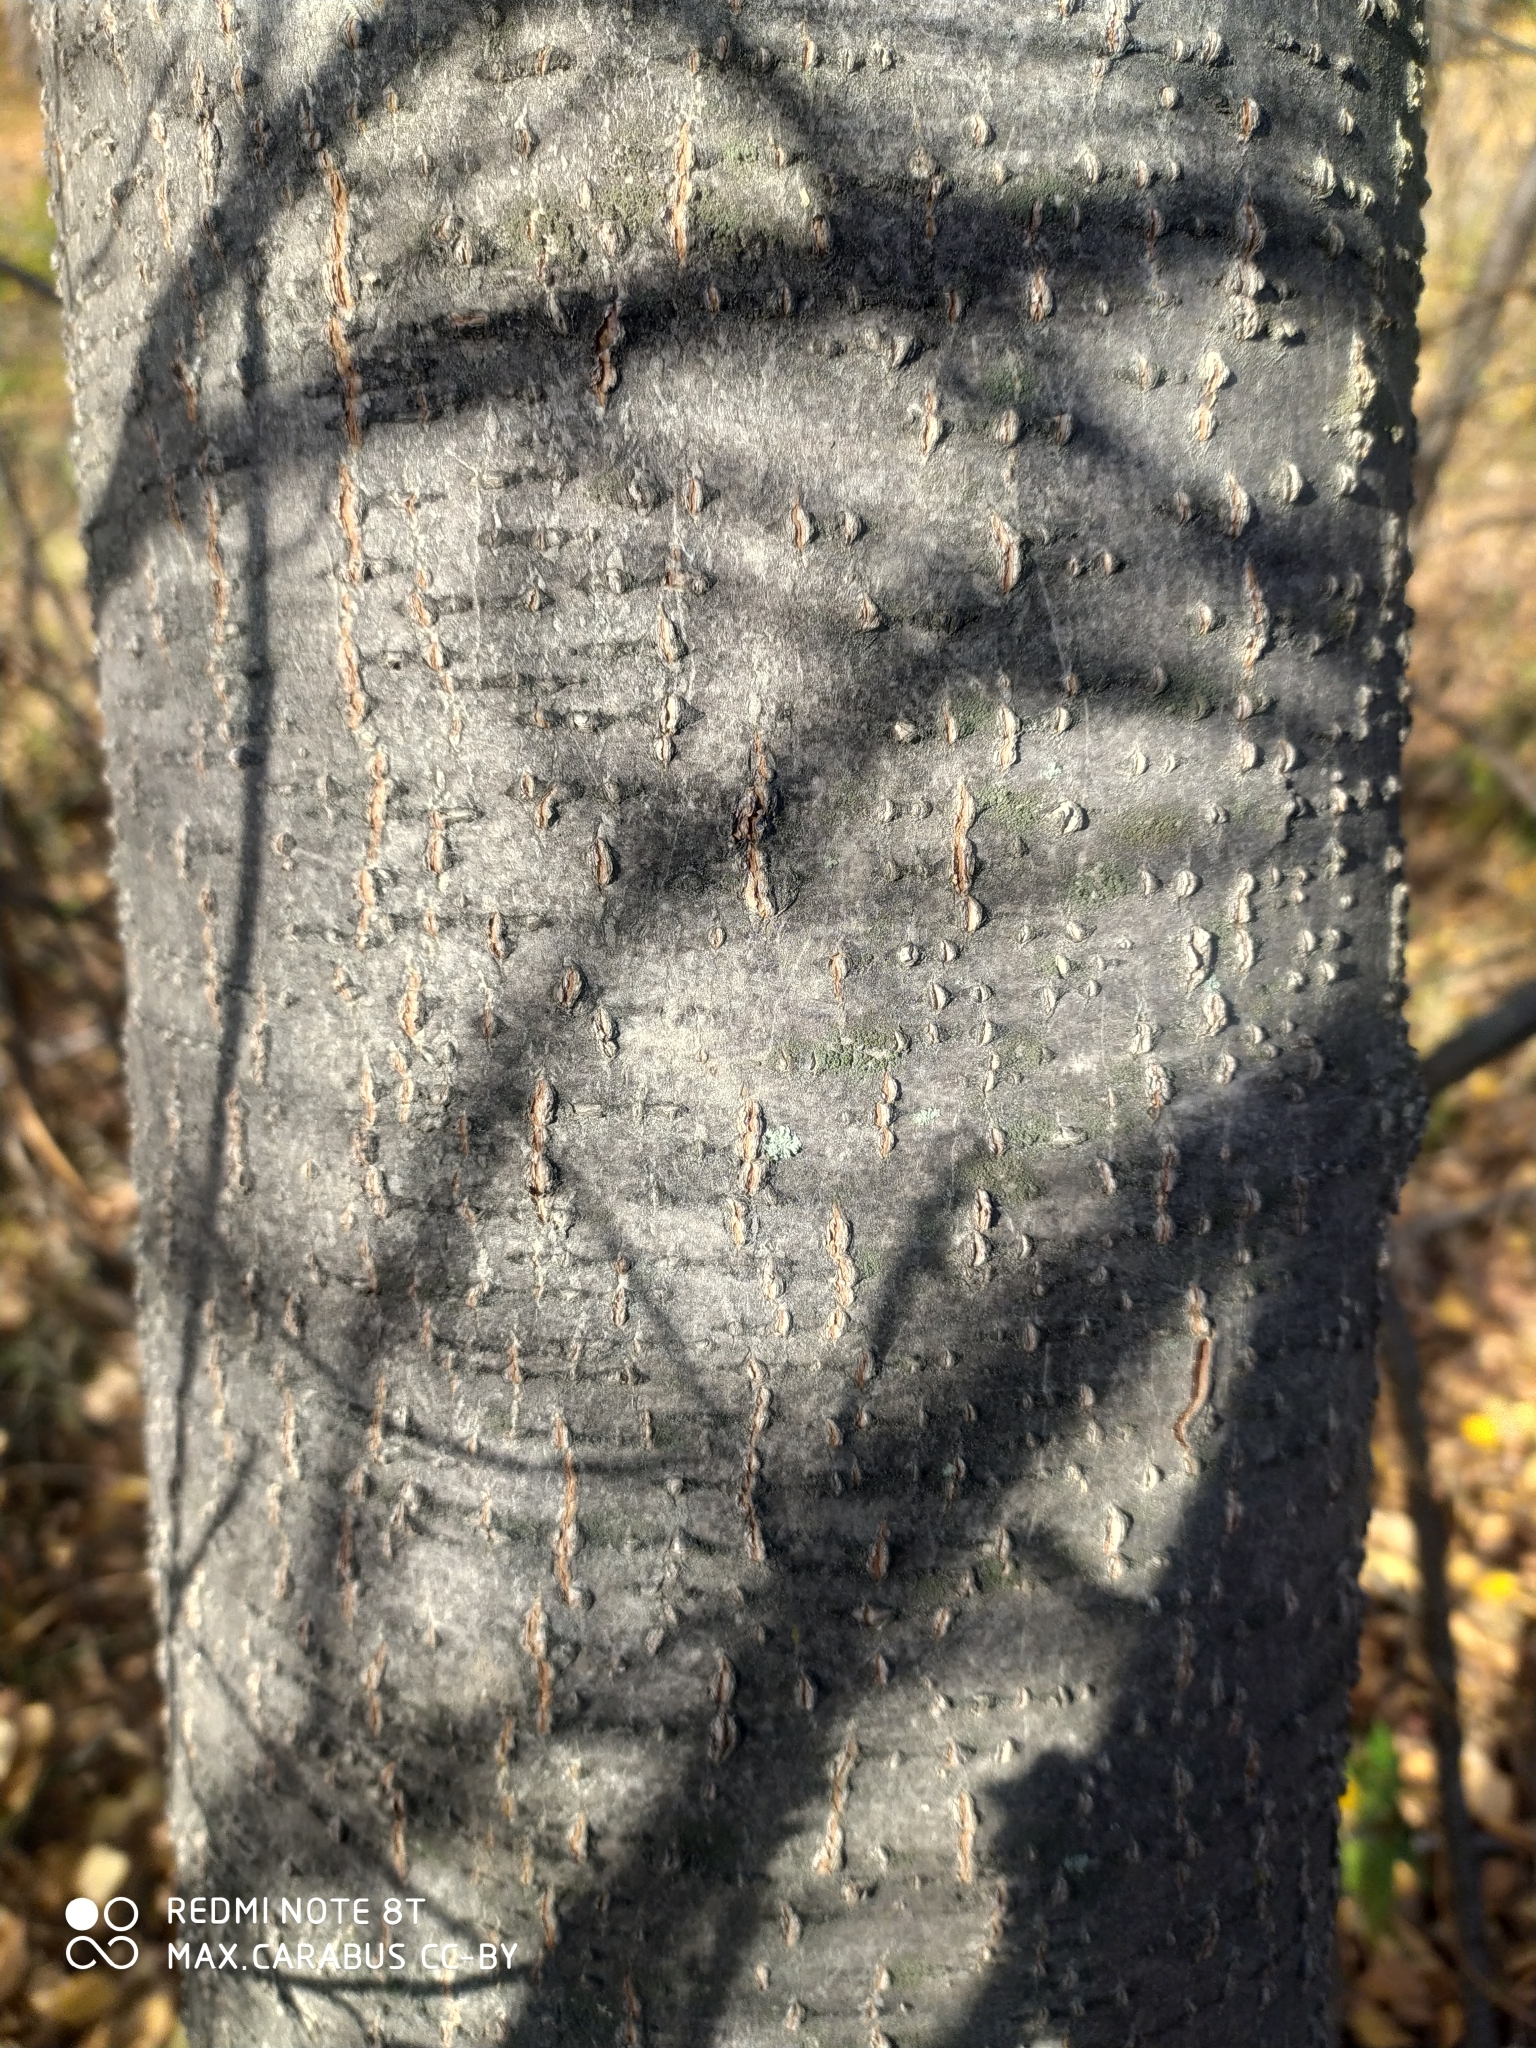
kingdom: Plantae
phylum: Tracheophyta
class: Magnoliopsida
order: Fagales
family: Betulaceae
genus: Alnus
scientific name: Alnus incana
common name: Grey alder
